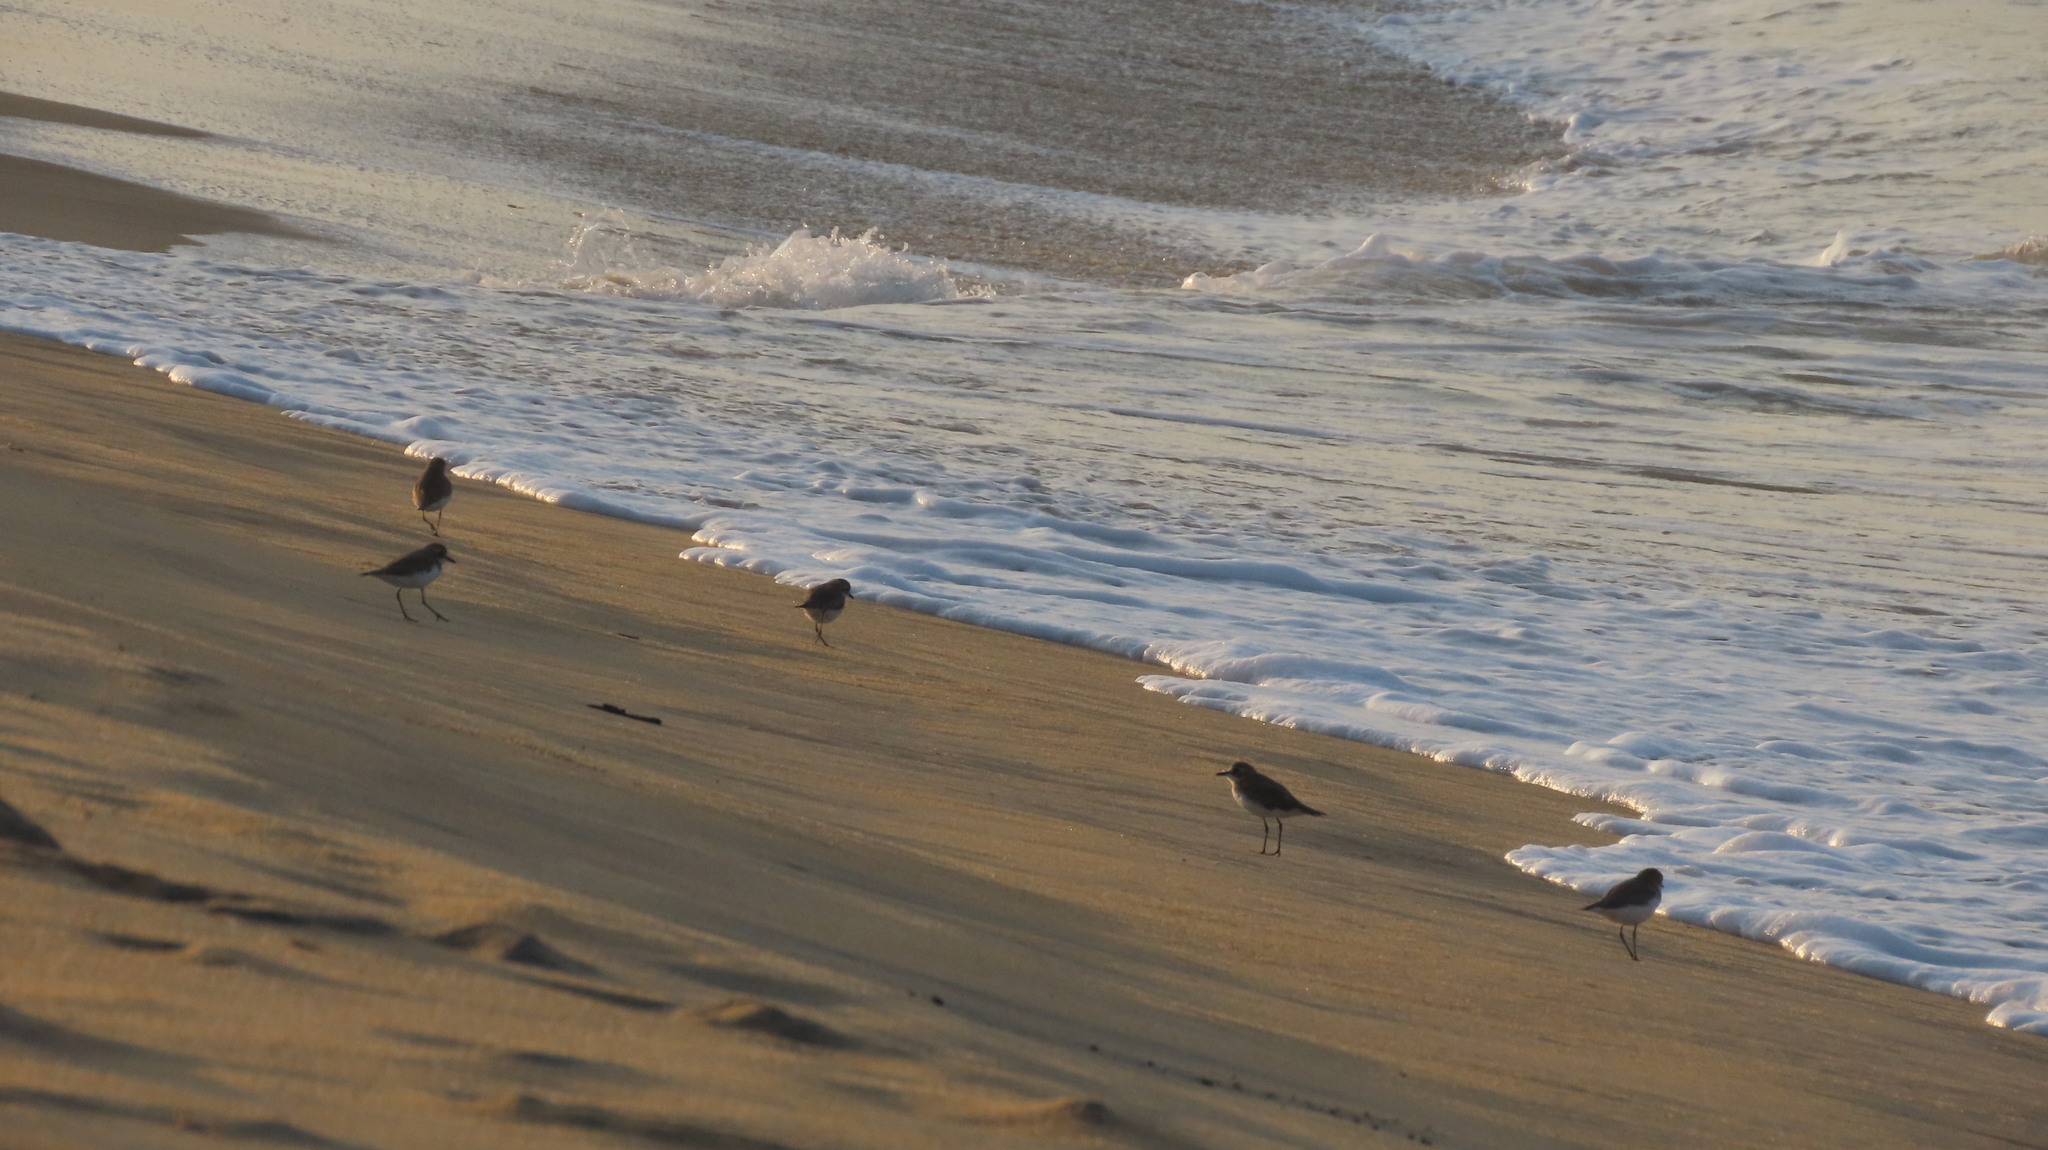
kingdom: Animalia
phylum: Chordata
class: Aves
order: Charadriiformes
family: Charadriidae
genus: Anarhynchus
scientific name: Anarhynchus
